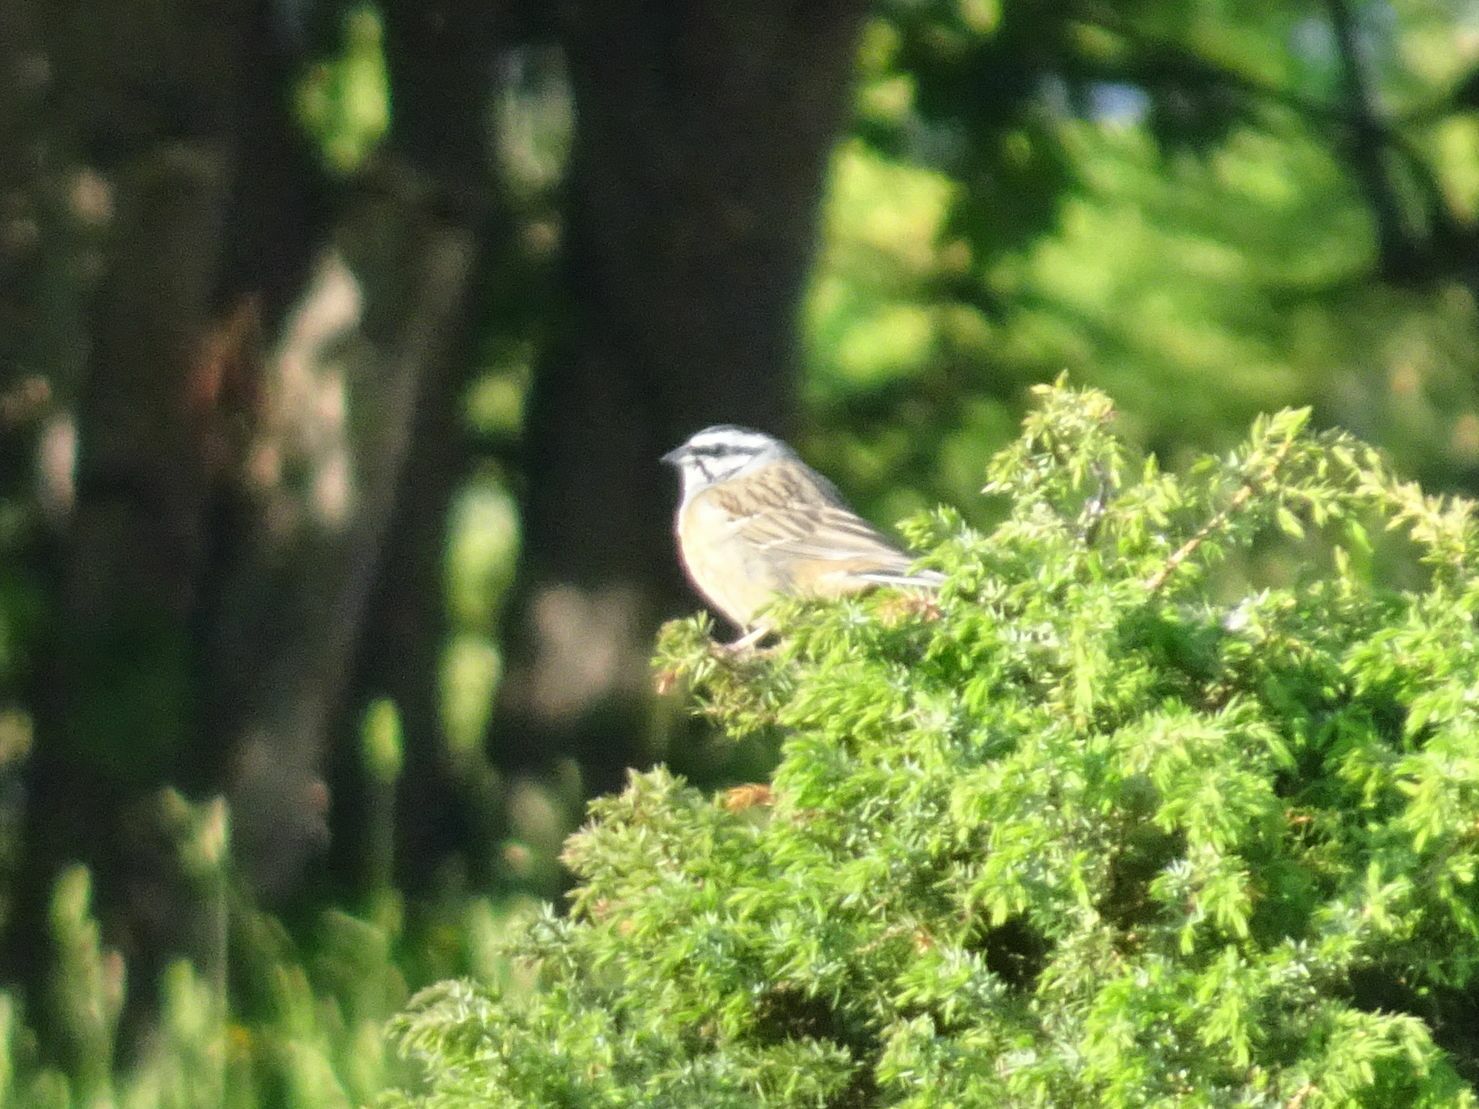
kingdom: Animalia
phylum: Chordata
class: Aves
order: Passeriformes
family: Emberizidae
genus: Emberiza
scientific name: Emberiza cia
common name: Rock bunting
